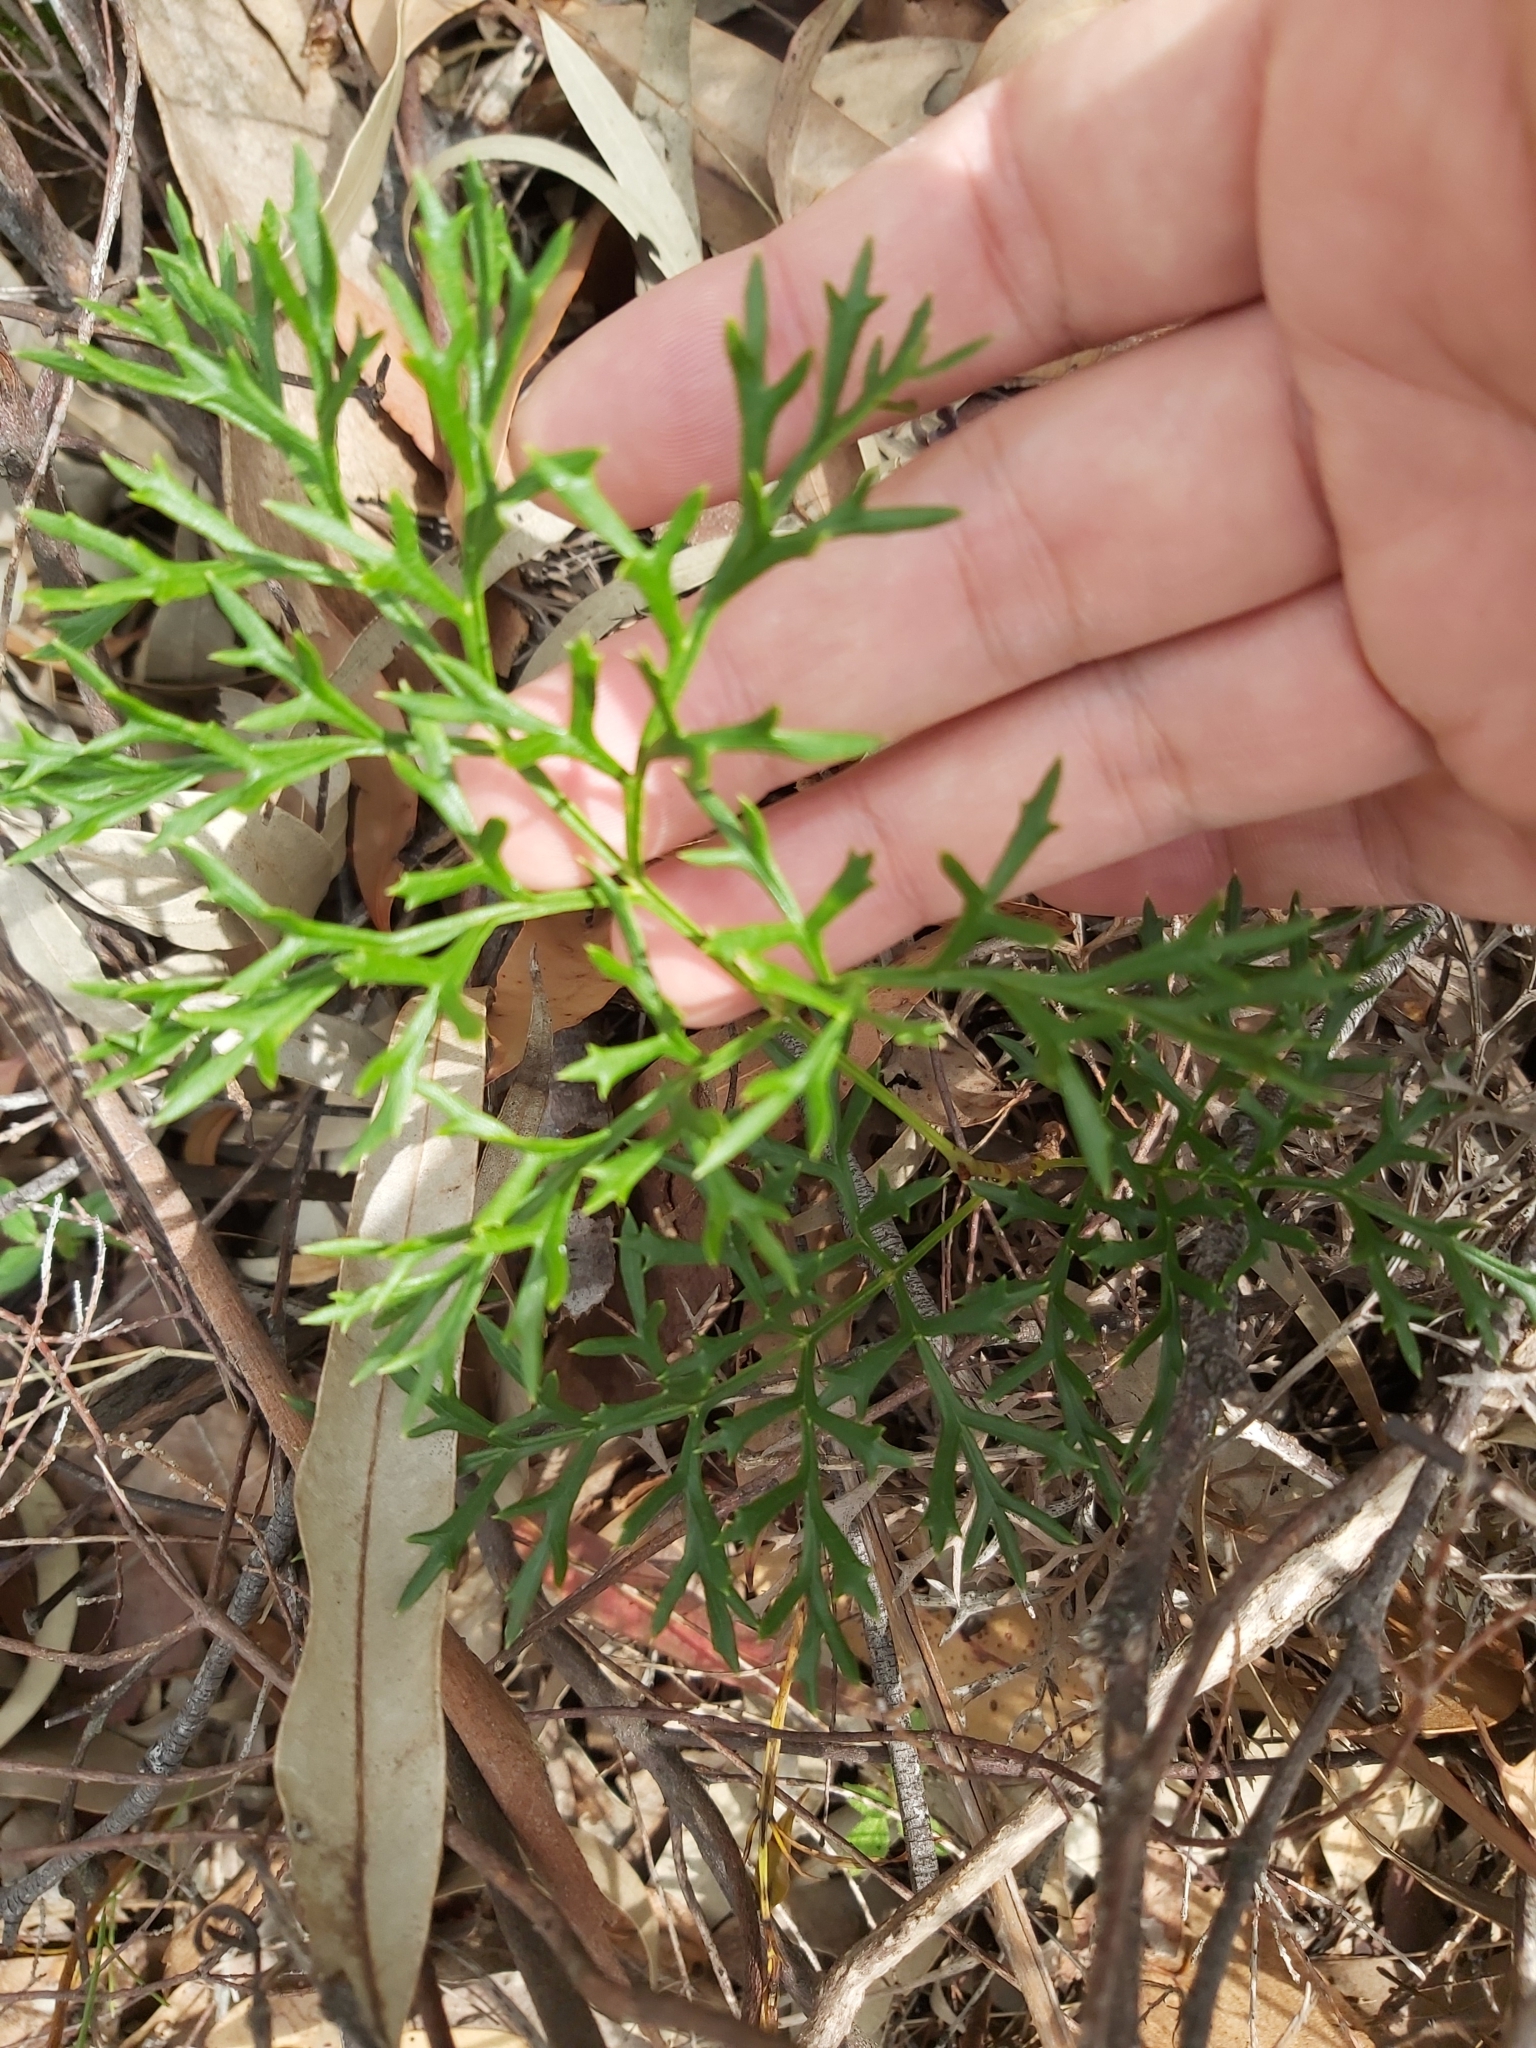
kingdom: Plantae
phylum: Tracheophyta
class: Magnoliopsida
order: Proteales
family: Proteaceae
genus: Lomatia
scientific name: Lomatia silaifolia
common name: Crinklebush
